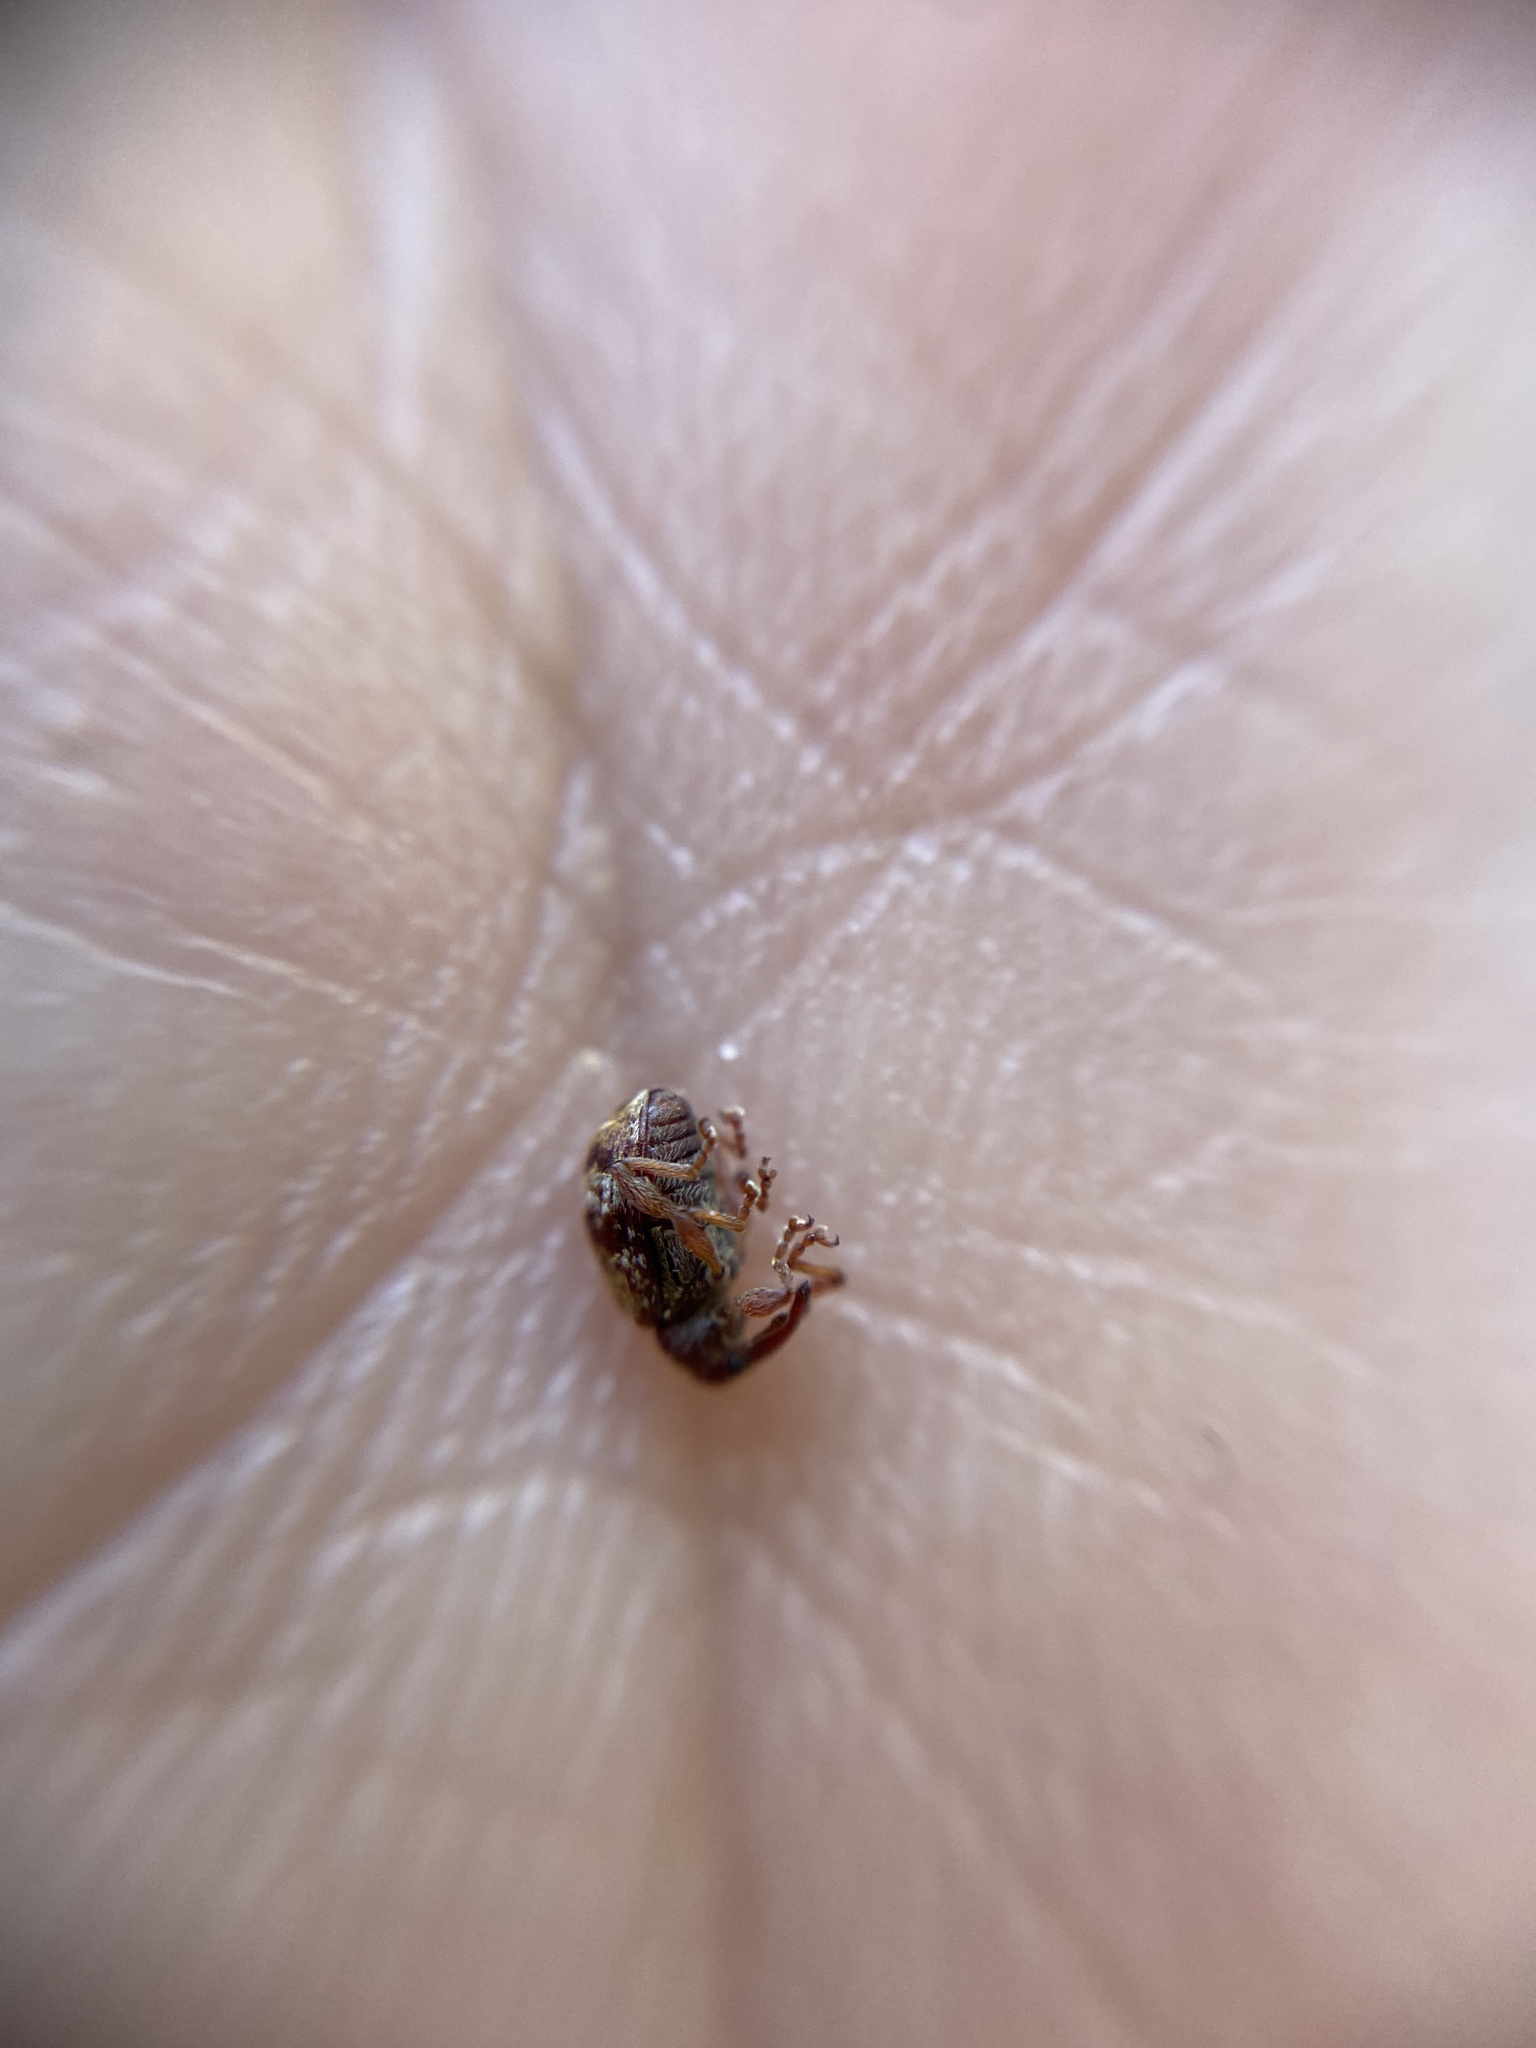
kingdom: Animalia
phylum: Arthropoda
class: Insecta
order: Coleoptera
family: Curculionidae
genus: Anthonomus
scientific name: Anthonomus pedicularius
